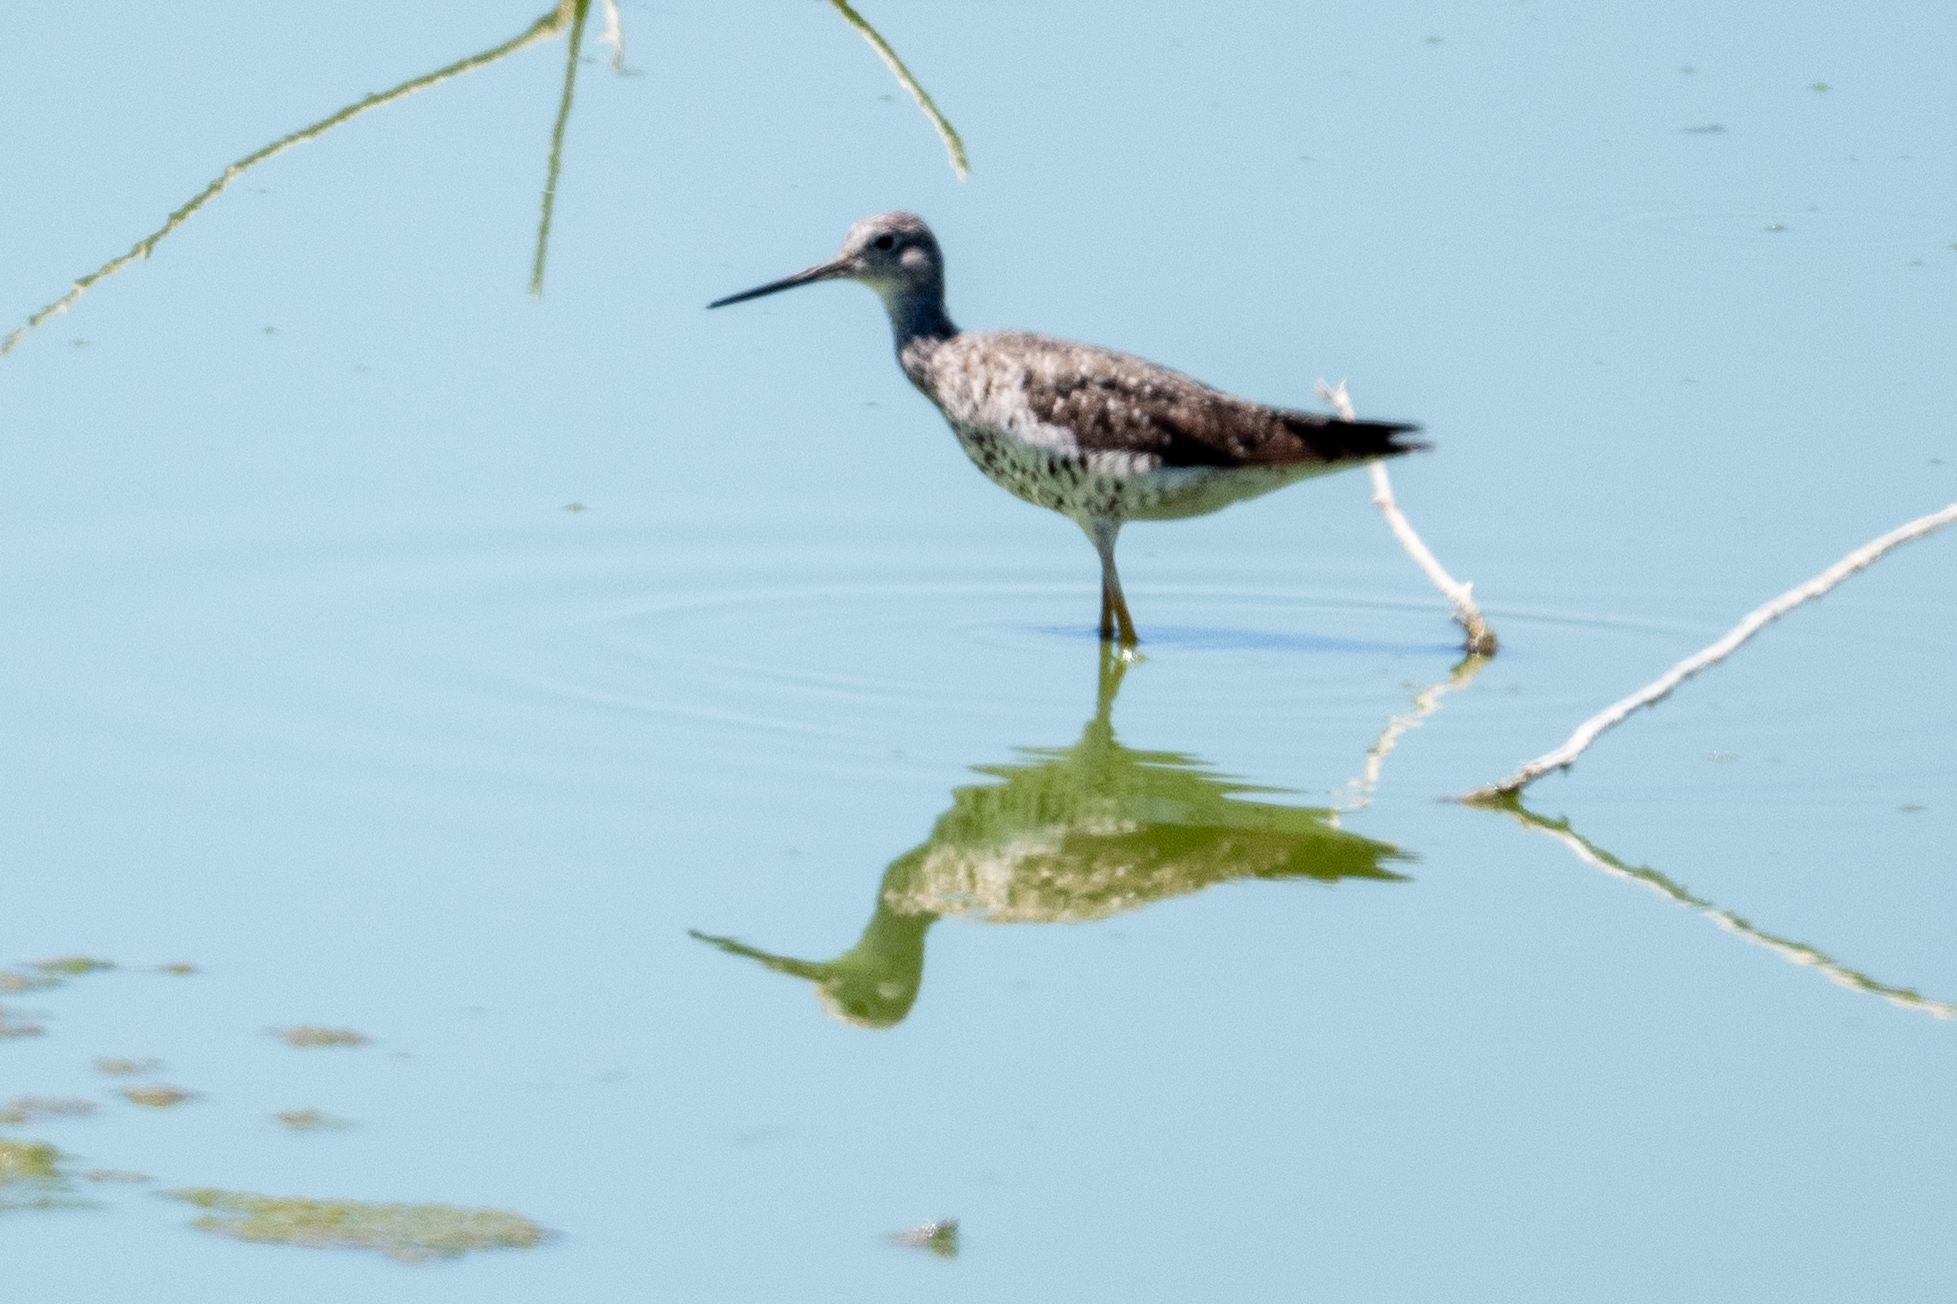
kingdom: Animalia
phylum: Chordata
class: Aves
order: Charadriiformes
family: Scolopacidae
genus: Tringa
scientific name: Tringa melanoleuca
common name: Greater yellowlegs
